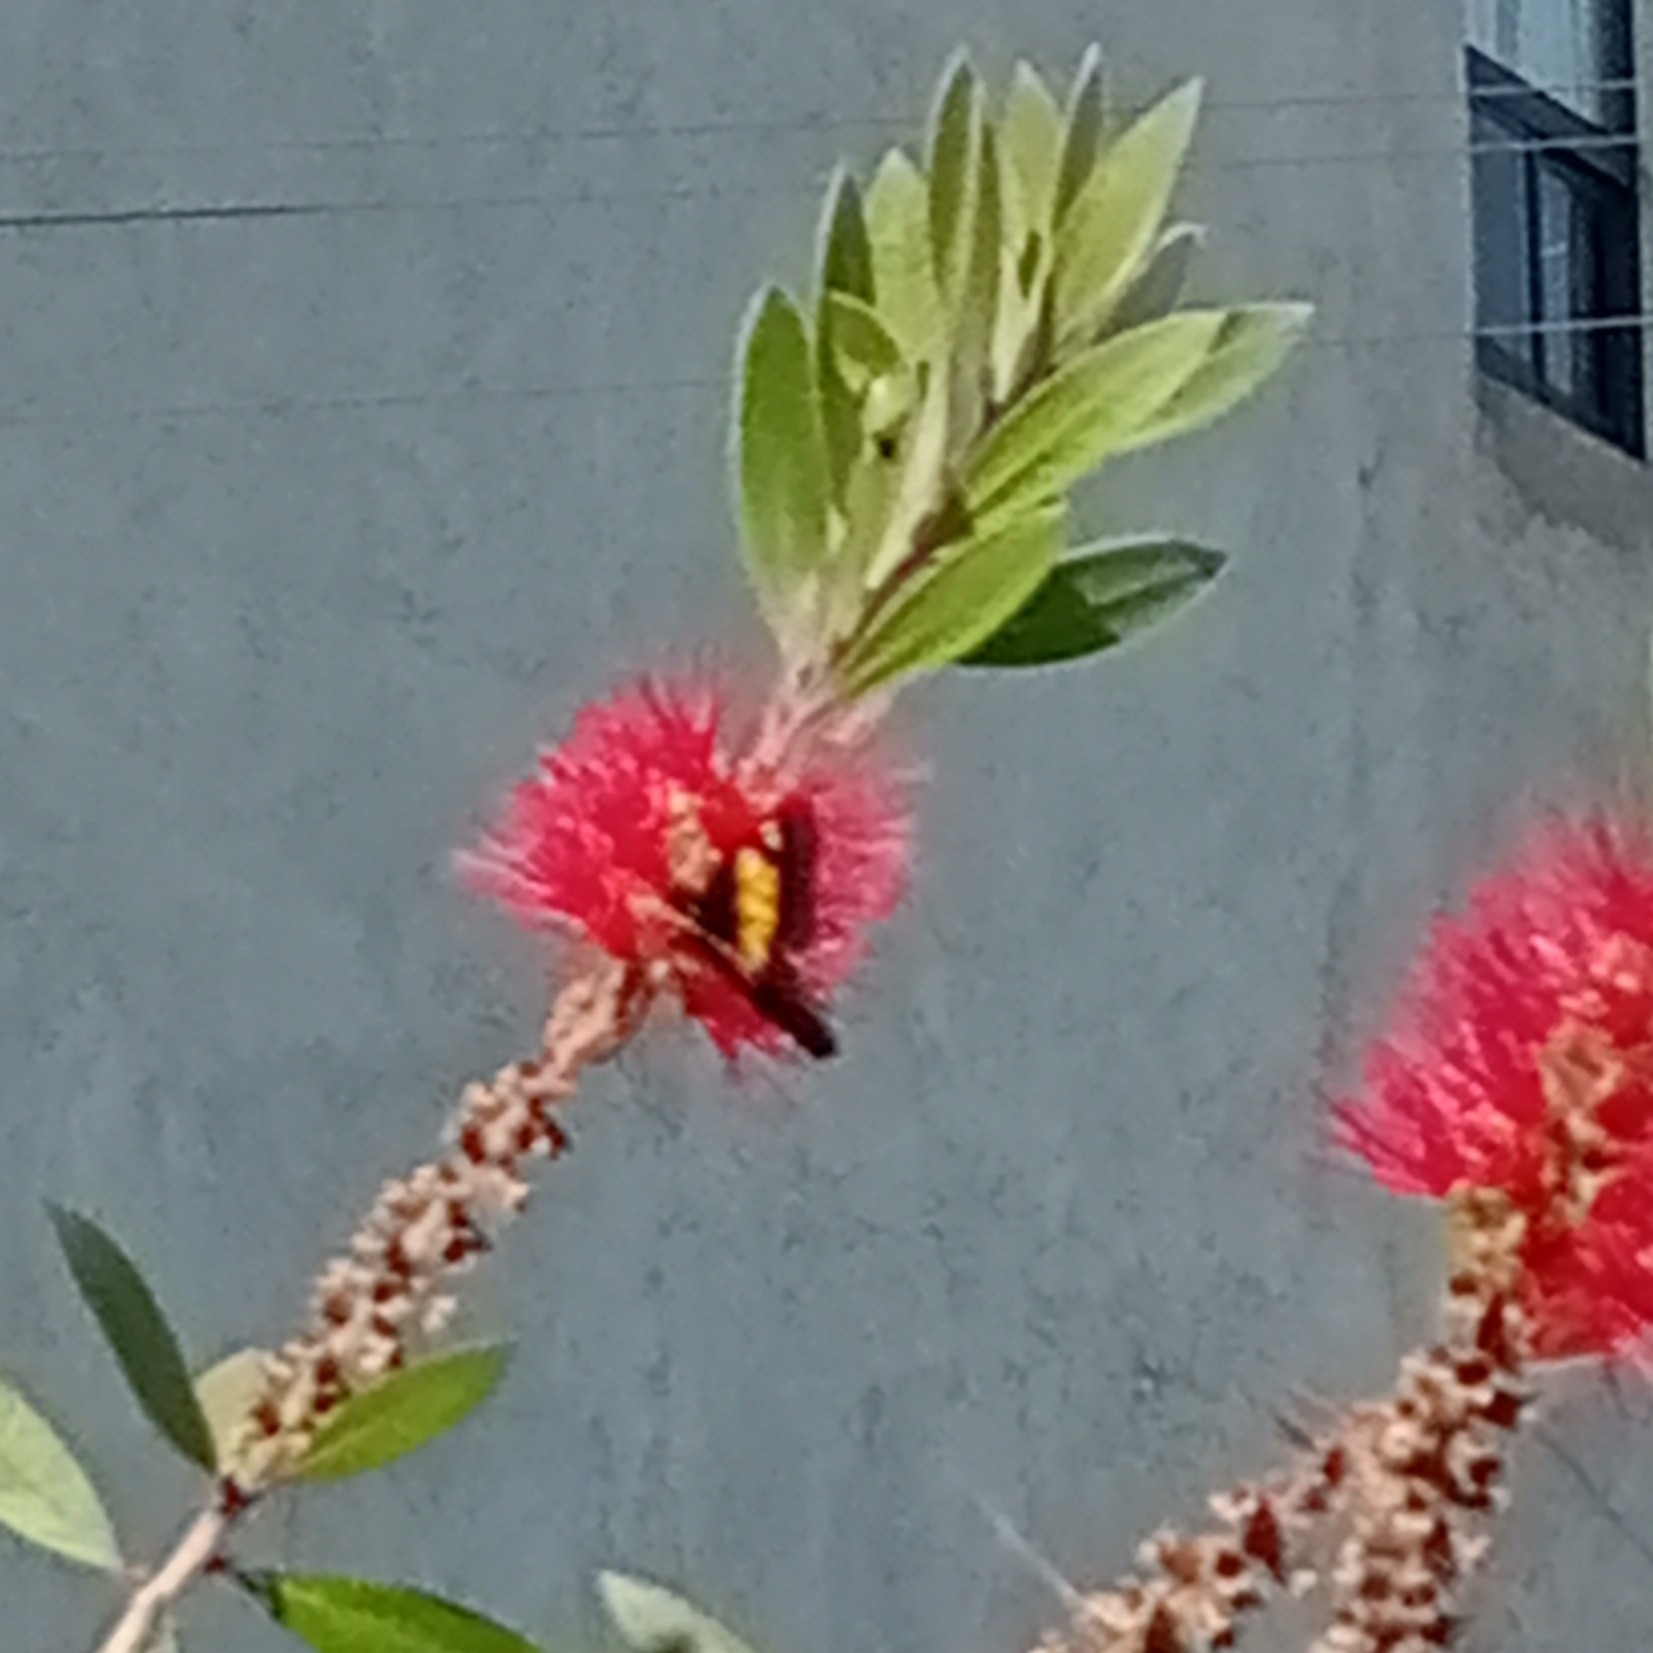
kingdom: Animalia
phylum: Arthropoda
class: Insecta
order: Lepidoptera
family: Pieridae
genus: Archonias
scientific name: Archonias teutila
